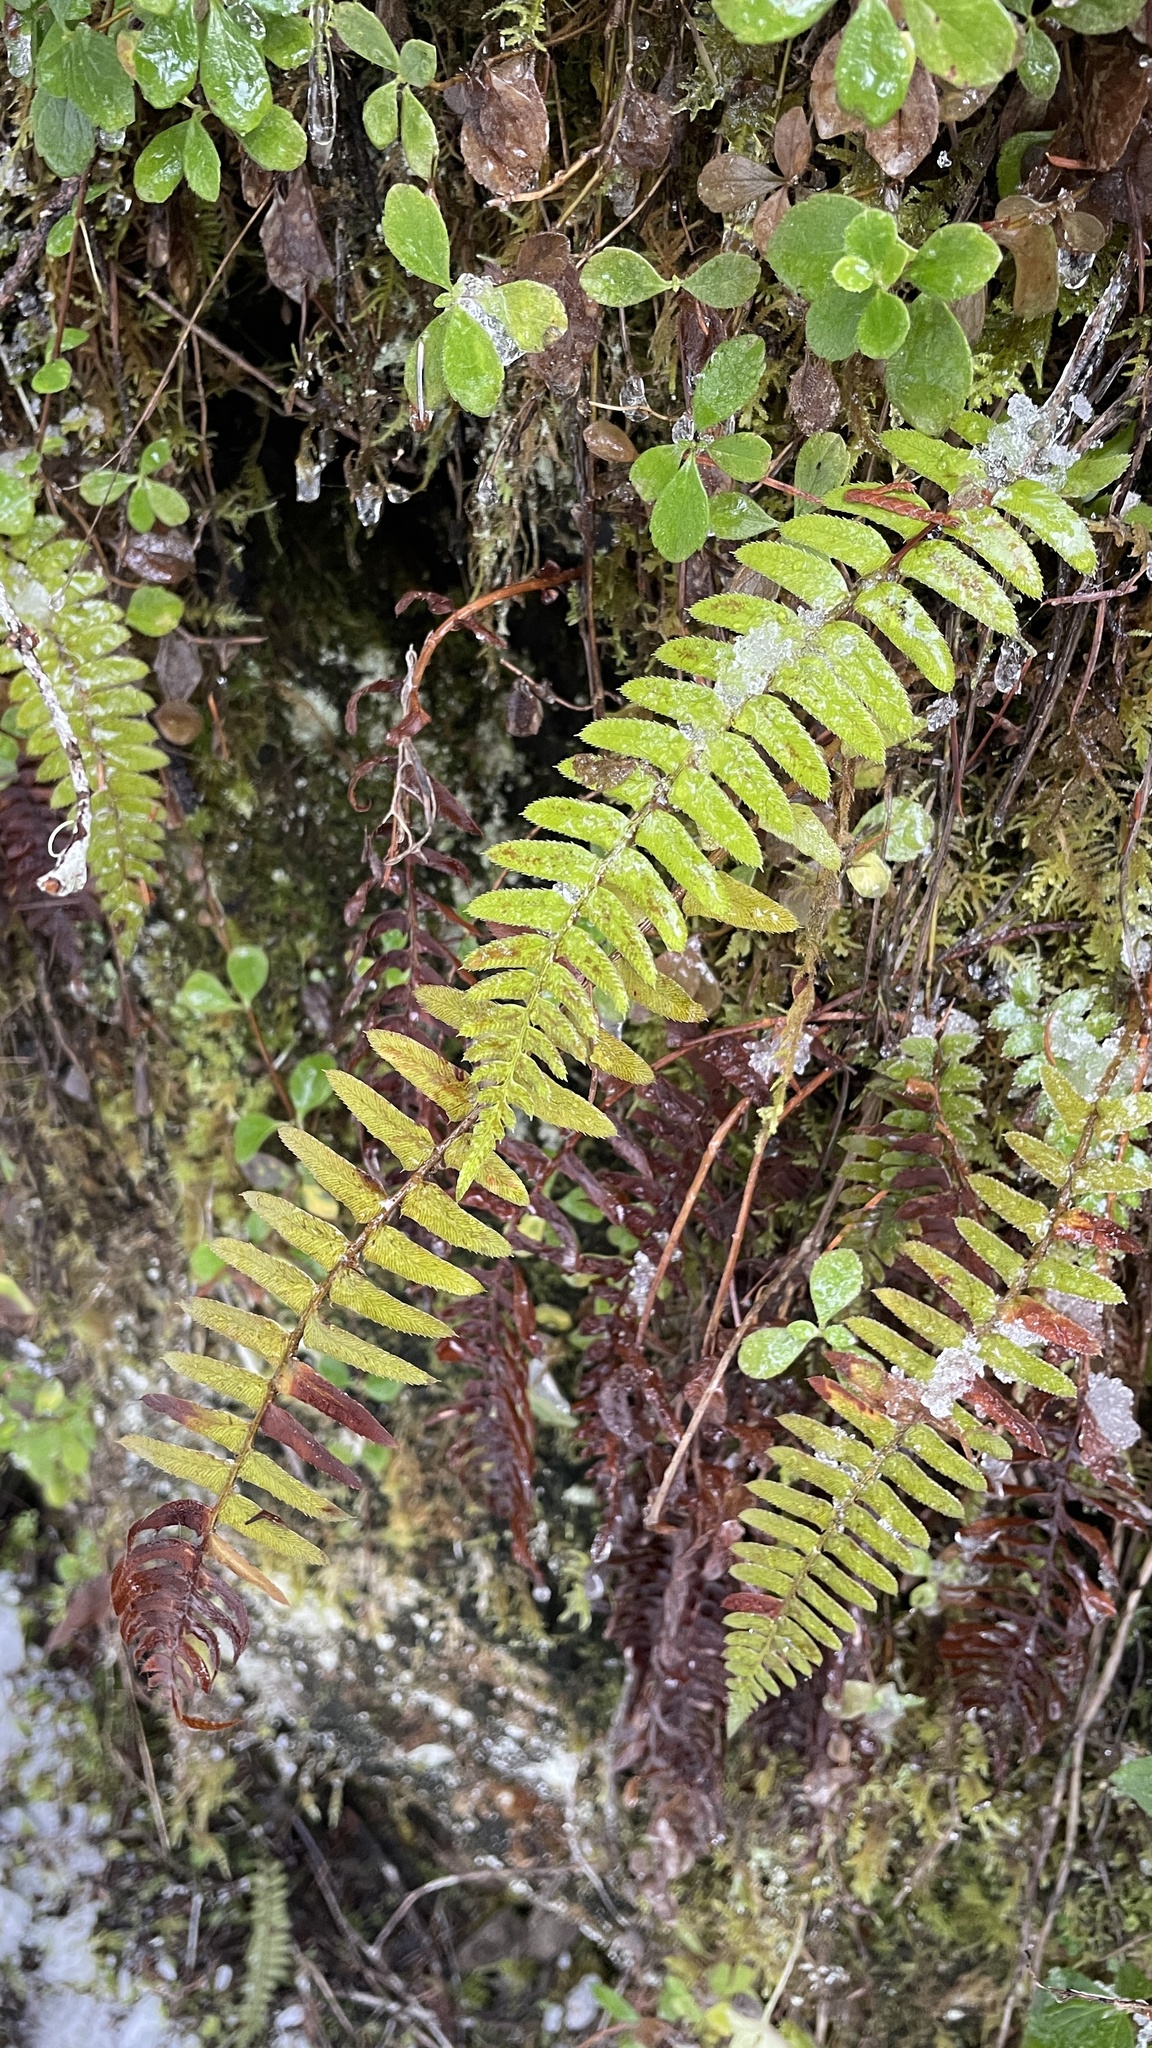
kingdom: Plantae
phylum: Tracheophyta
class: Polypodiopsida
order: Polypodiales
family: Dryopteridaceae
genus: Polystichum
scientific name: Polystichum munitum
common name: Western sword-fern
